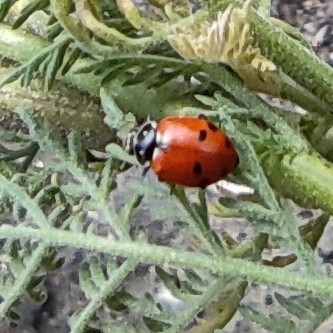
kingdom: Animalia
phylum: Arthropoda
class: Insecta
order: Coleoptera
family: Coccinellidae
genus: Hippodamia
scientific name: Hippodamia variegata
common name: Ladybird beetle
